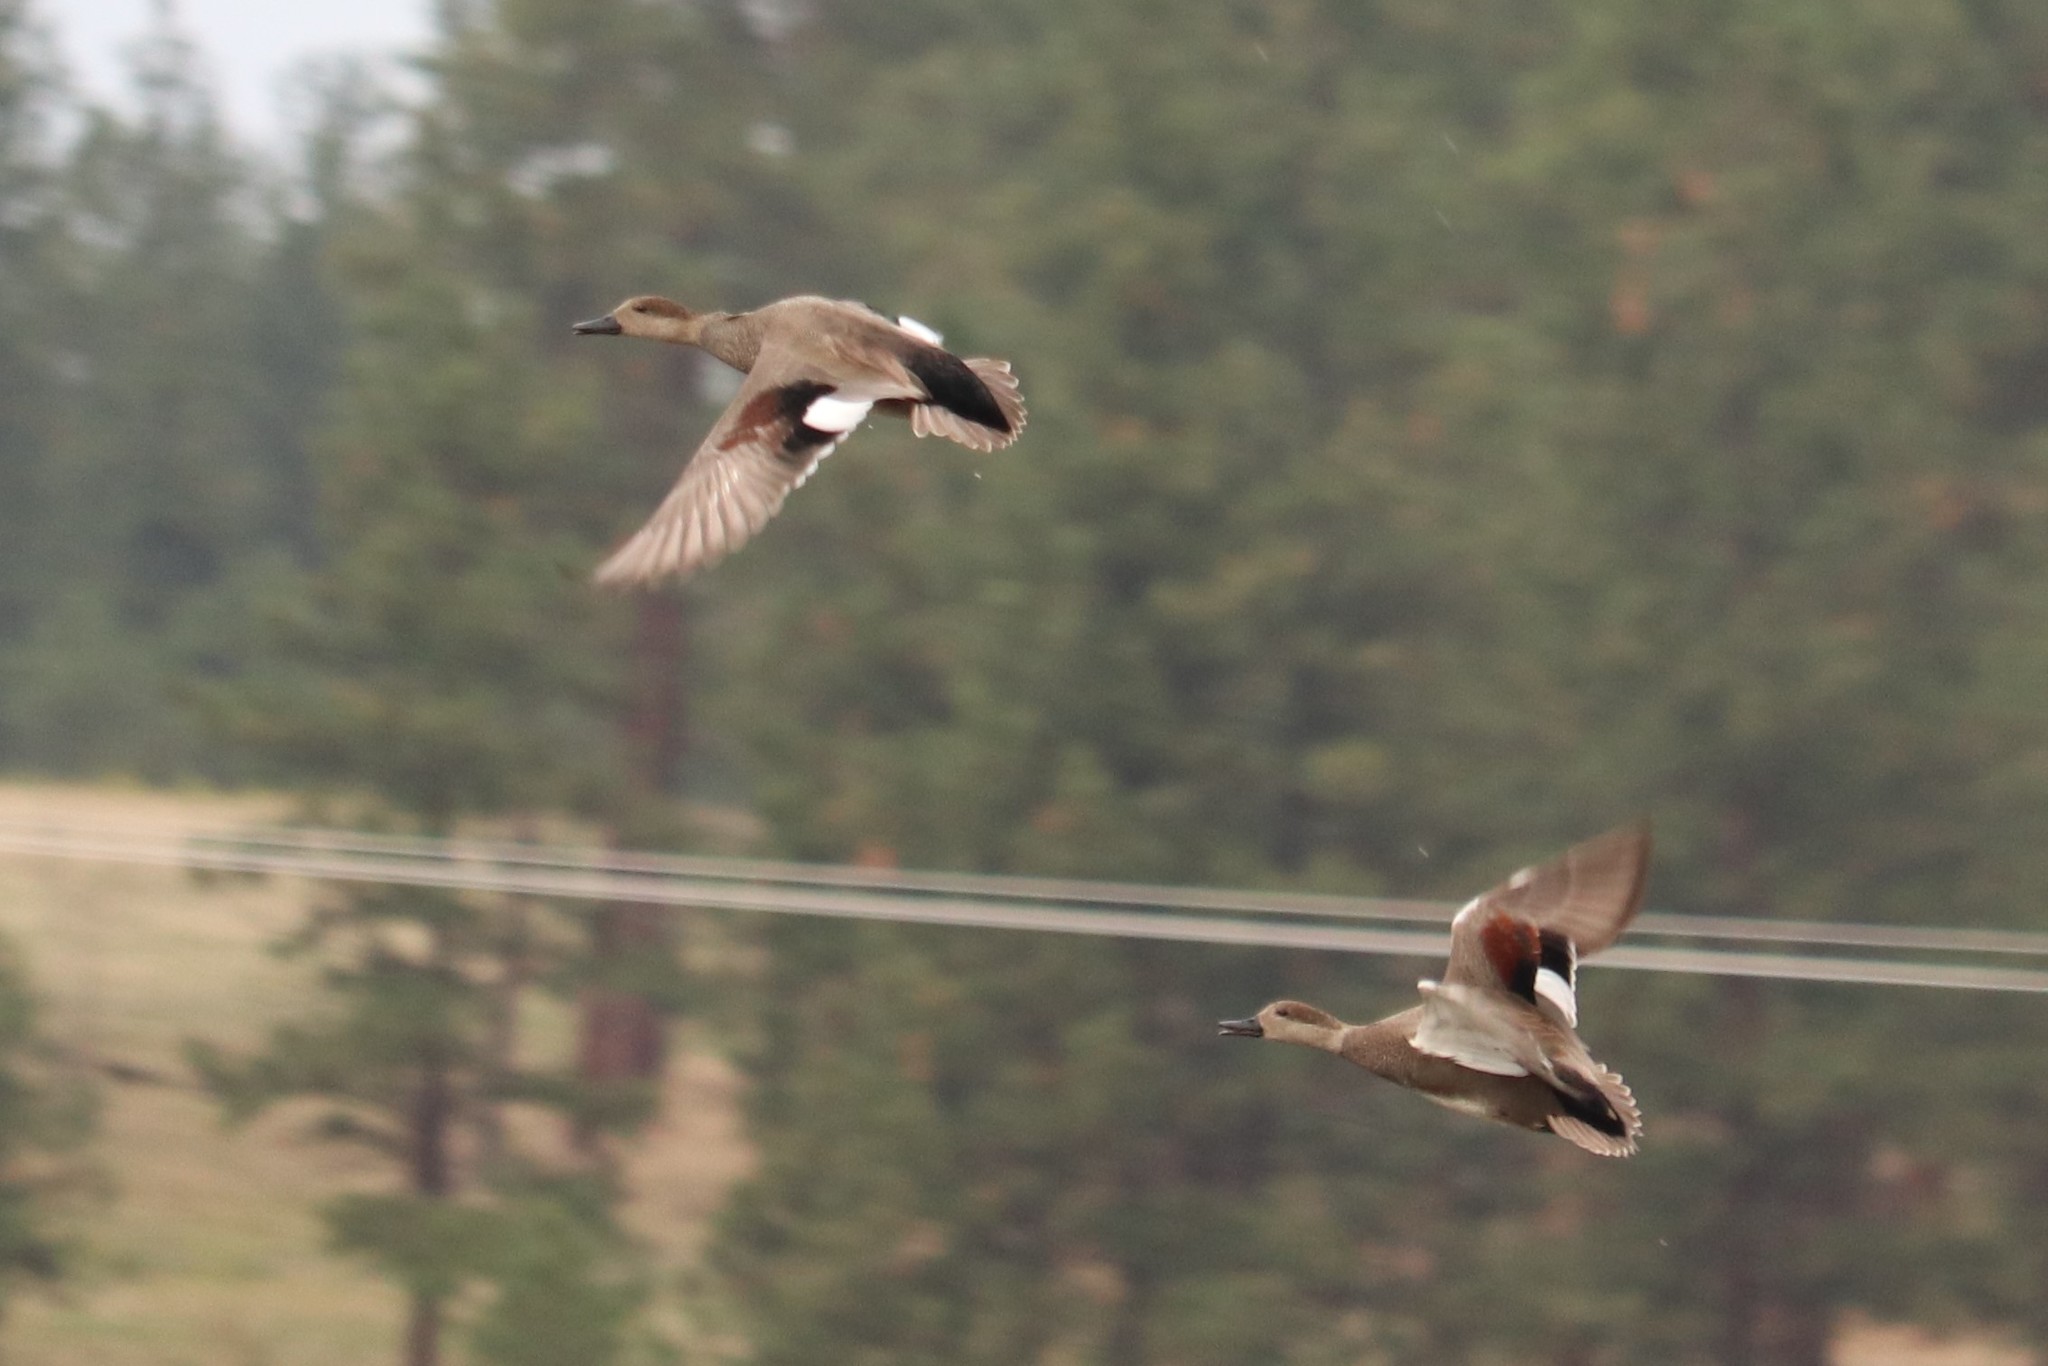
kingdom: Animalia
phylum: Chordata
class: Aves
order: Anseriformes
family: Anatidae
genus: Mareca
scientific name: Mareca strepera
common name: Gadwall
